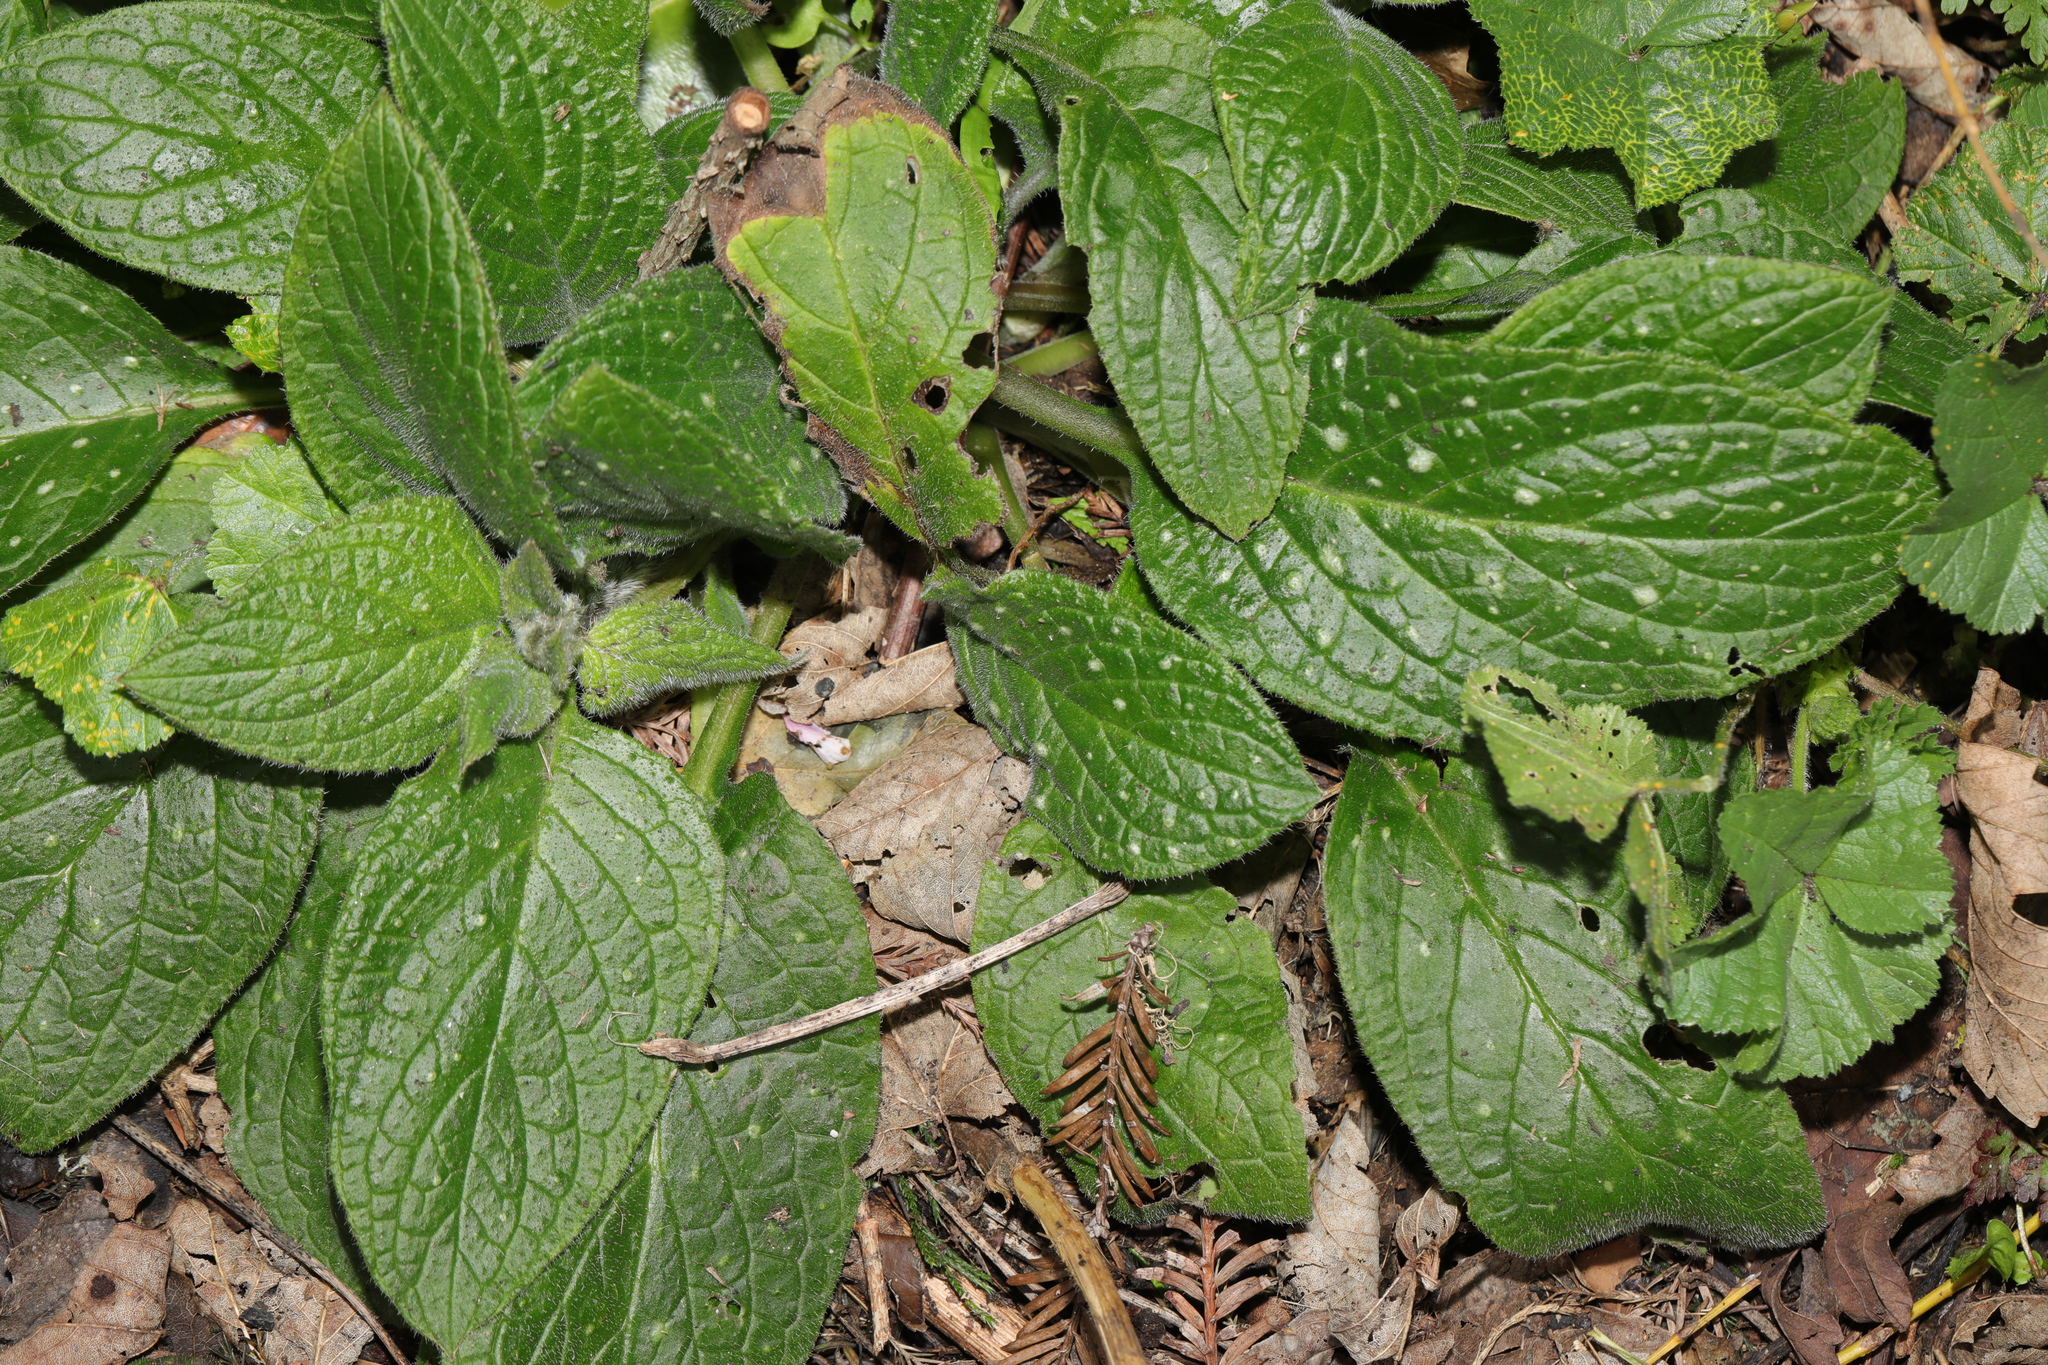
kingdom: Plantae
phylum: Tracheophyta
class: Magnoliopsida
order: Boraginales
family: Boraginaceae
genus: Pentaglottis
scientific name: Pentaglottis sempervirens
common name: Green alkanet
